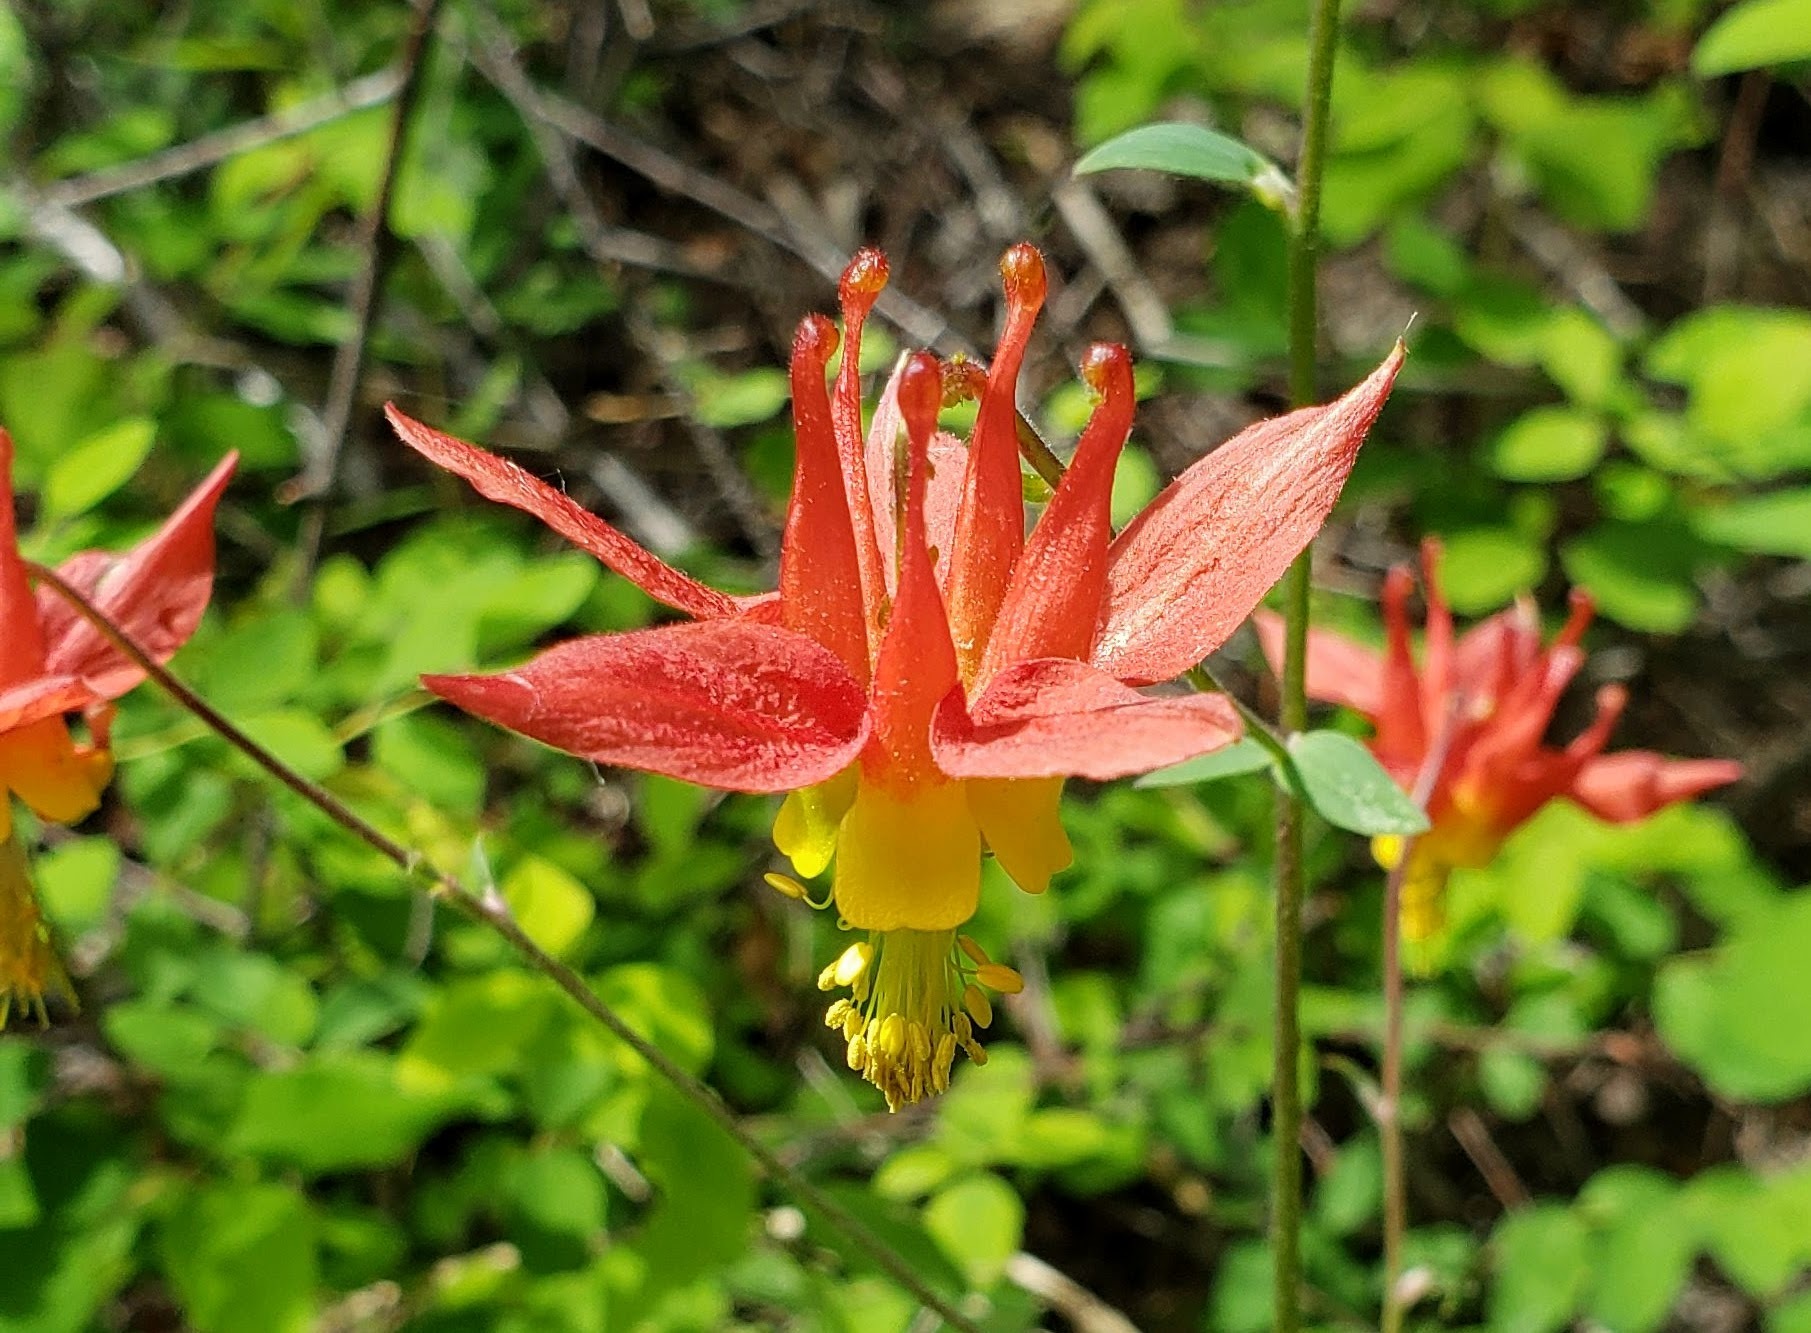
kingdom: Plantae
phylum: Tracheophyta
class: Magnoliopsida
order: Ranunculales
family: Ranunculaceae
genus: Aquilegia
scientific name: Aquilegia formosa
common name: Sitka columbine
